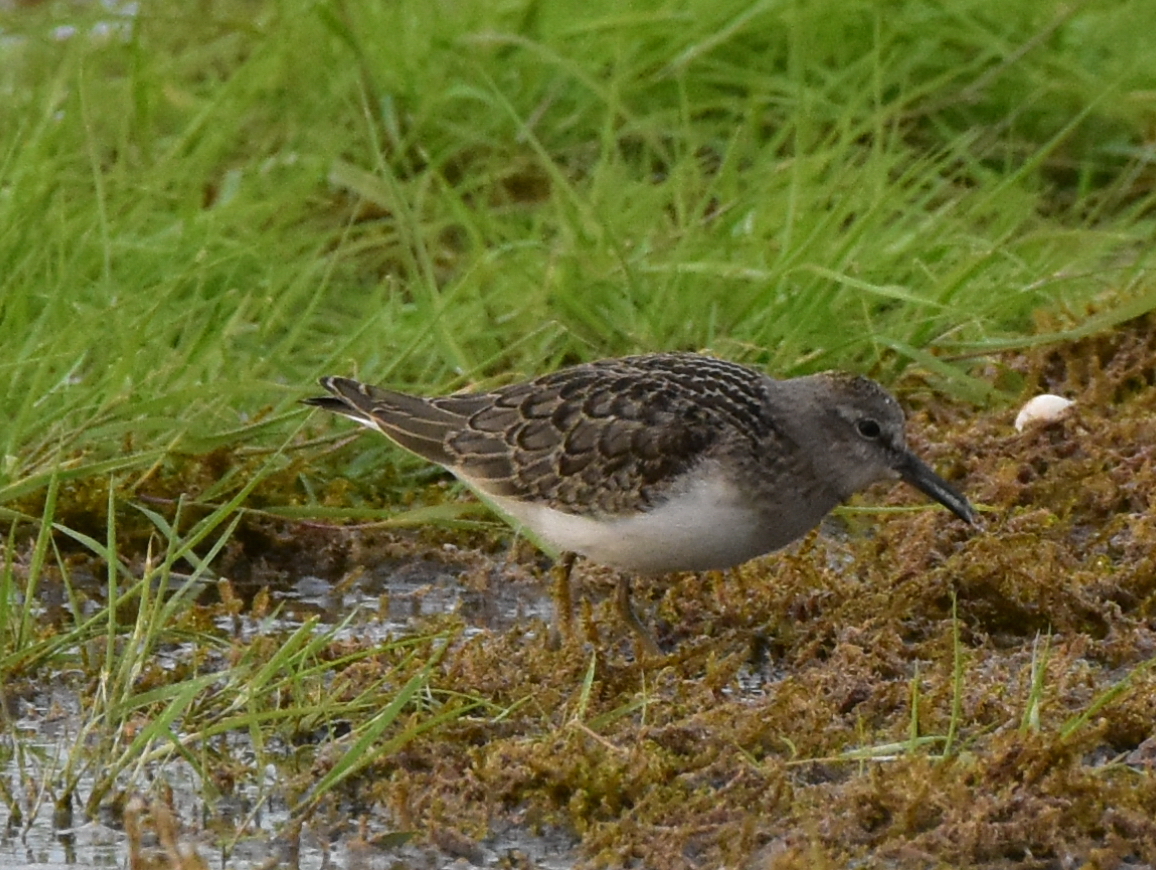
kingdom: Animalia
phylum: Chordata
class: Aves
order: Charadriiformes
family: Scolopacidae
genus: Calidris
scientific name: Calidris temminckii
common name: Temminck's stint
